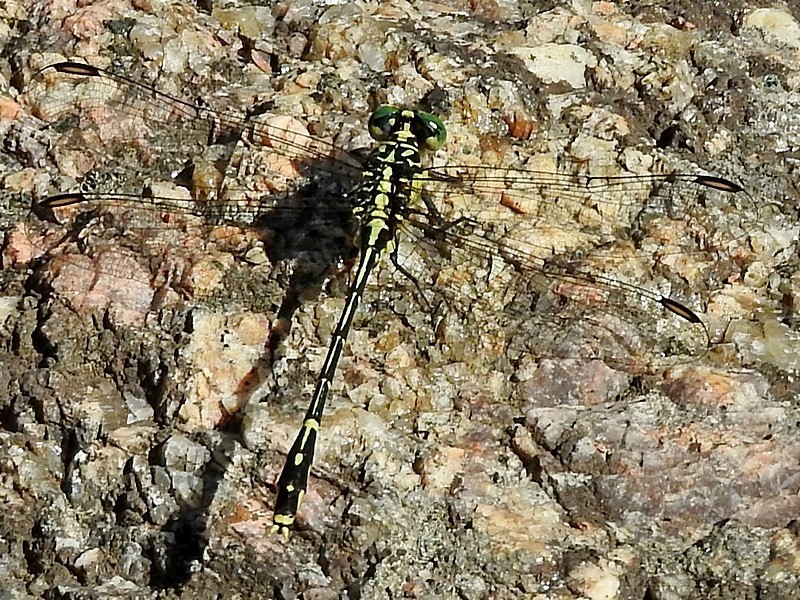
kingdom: Animalia
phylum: Arthropoda
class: Insecta
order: Odonata
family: Gomphidae
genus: Austrogomphus
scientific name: Austrogomphus ochraceus
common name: Jade hunter
